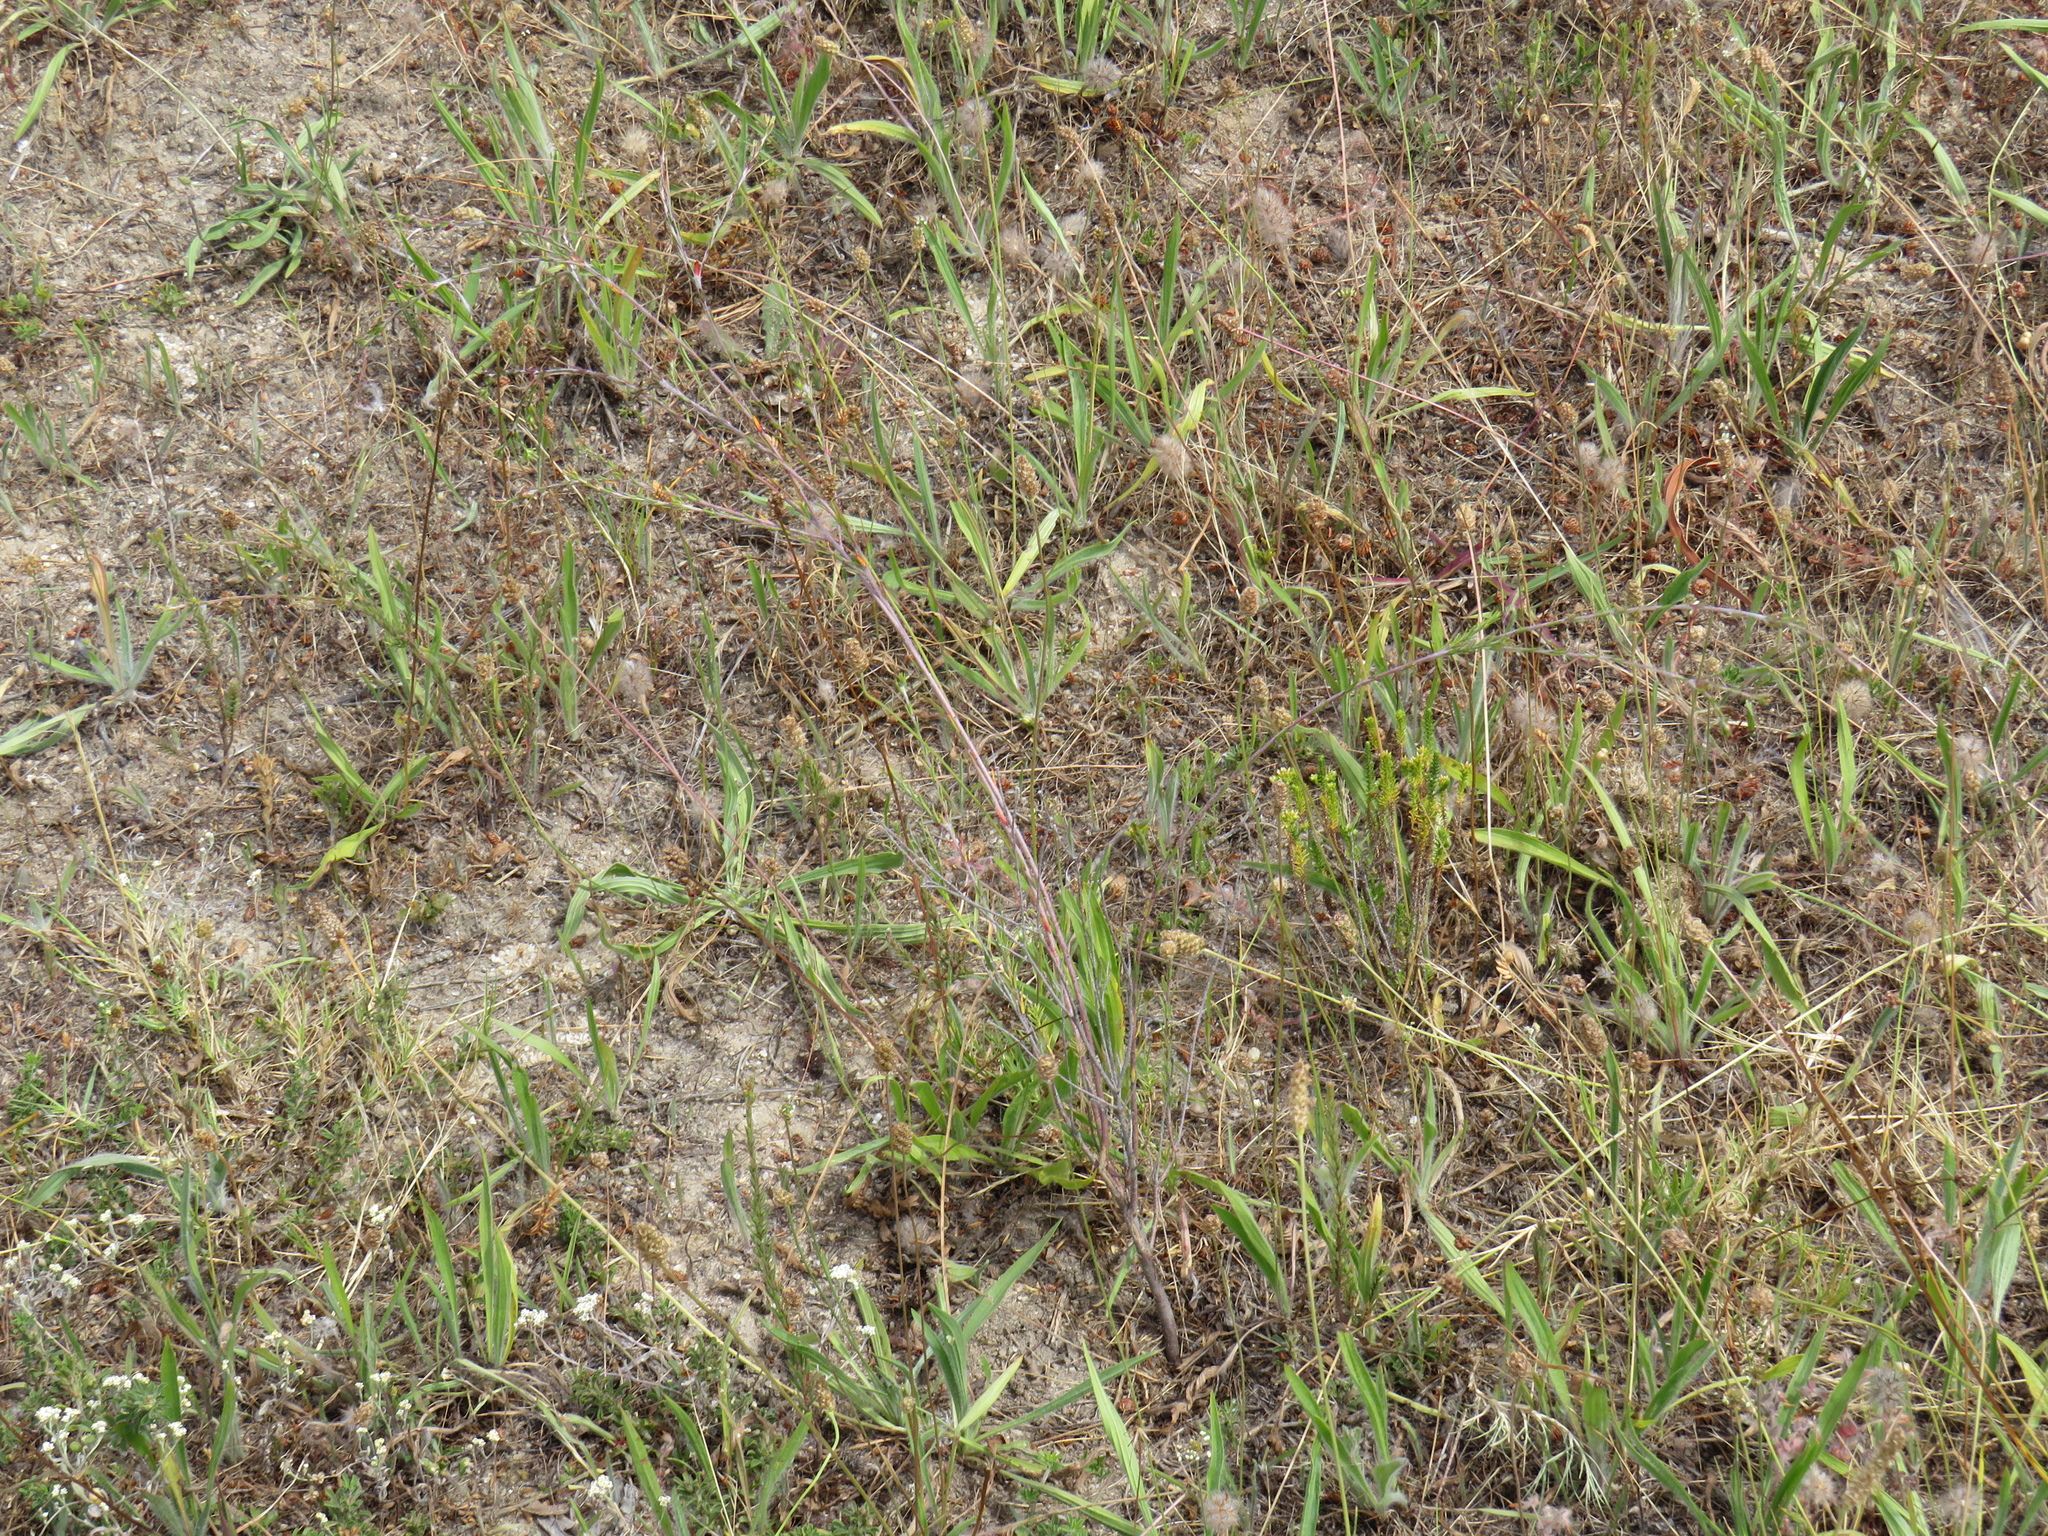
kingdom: Plantae
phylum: Tracheophyta
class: Magnoliopsida
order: Malvales
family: Thymelaeaceae
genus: Gnidia
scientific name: Gnidia laxa
